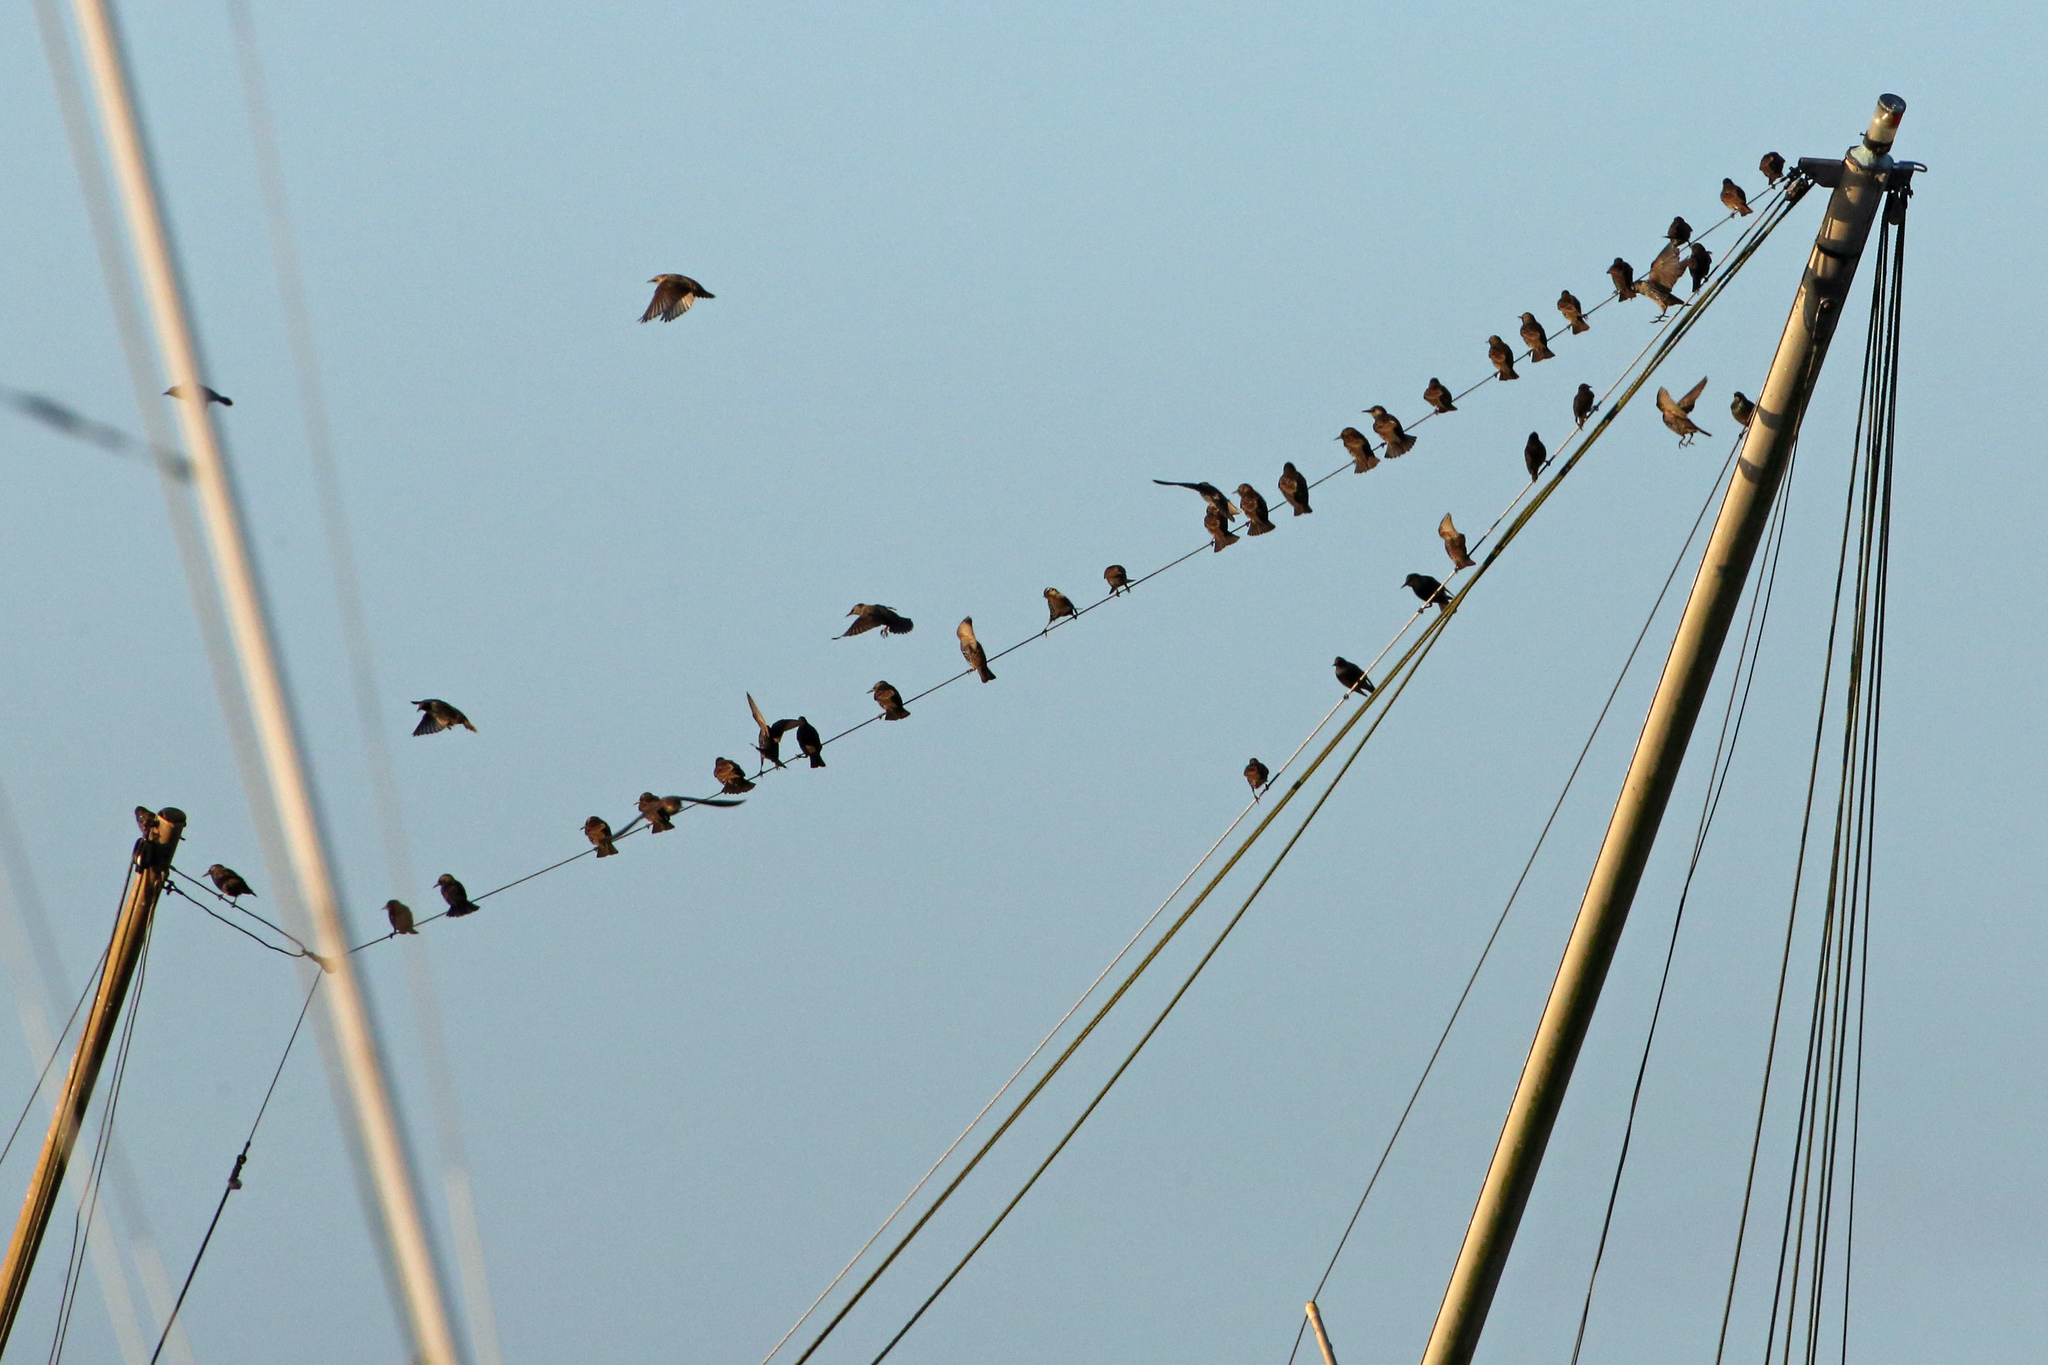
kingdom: Animalia
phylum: Chordata
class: Aves
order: Passeriformes
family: Sturnidae
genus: Sturnus
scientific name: Sturnus vulgaris
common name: Common starling
